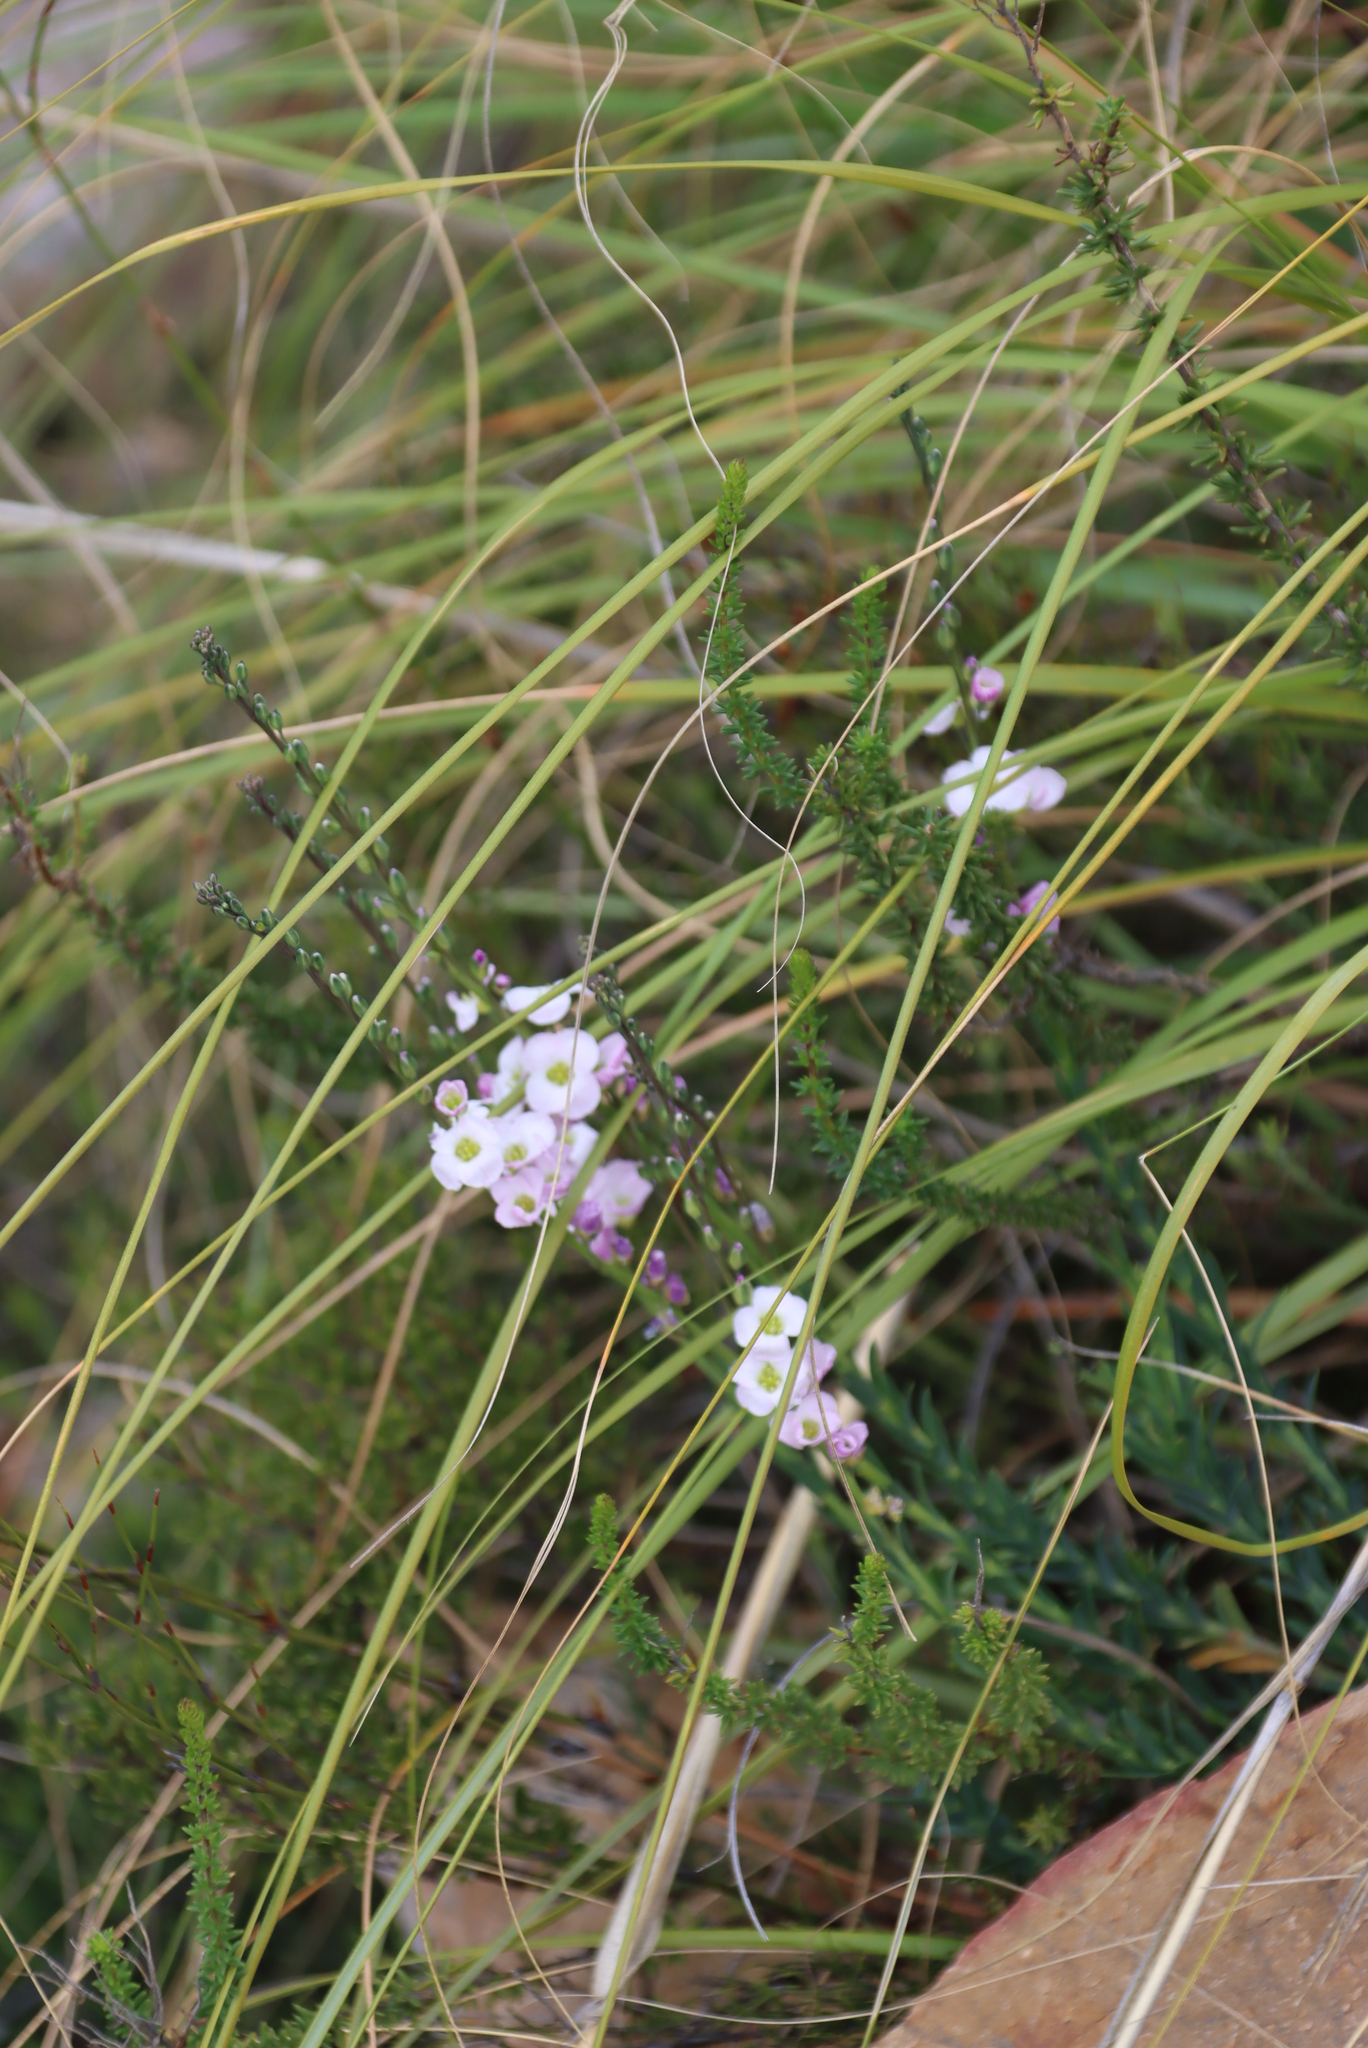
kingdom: Plantae
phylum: Tracheophyta
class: Magnoliopsida
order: Brassicales
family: Brassicaceae
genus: Heliophila
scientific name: Heliophila glauca
